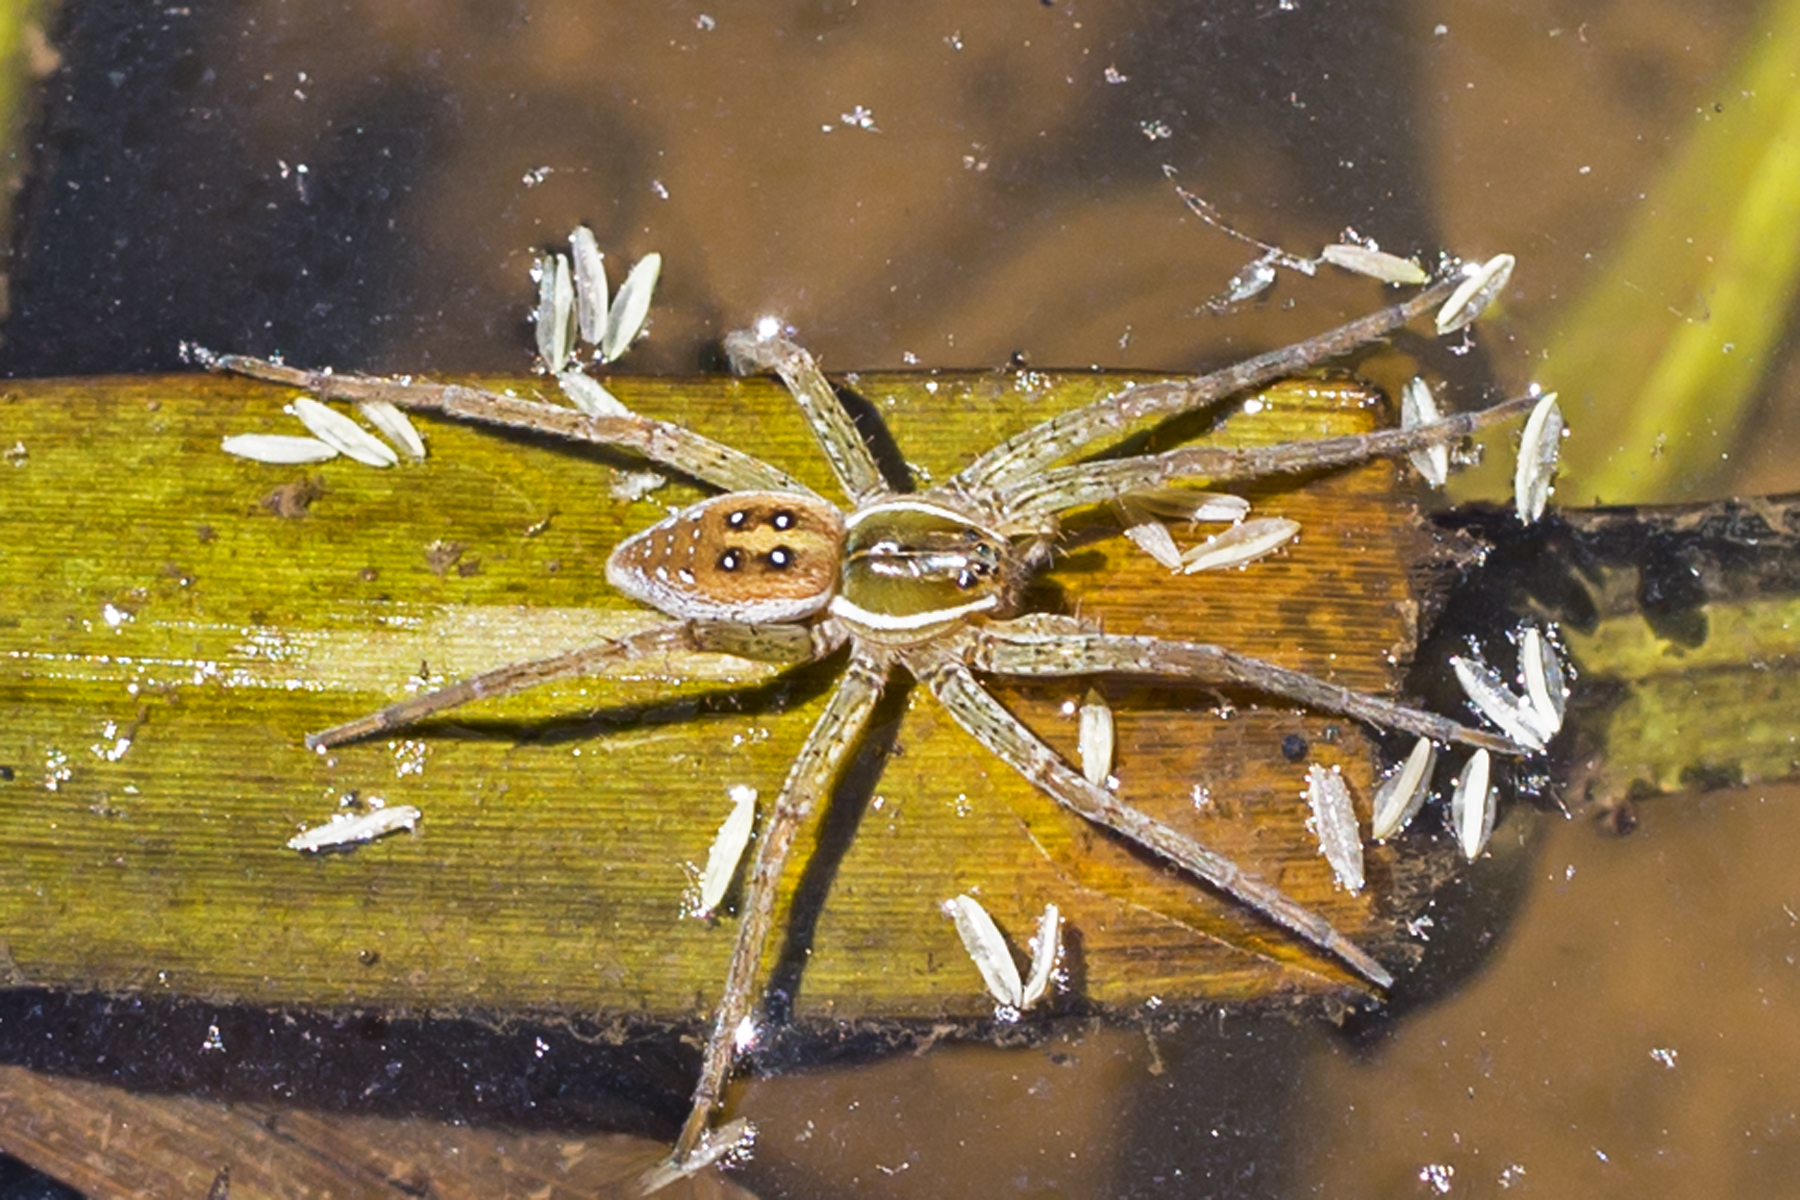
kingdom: Animalia
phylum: Arthropoda
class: Arachnida
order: Araneae
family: Pisauridae
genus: Dolomedes
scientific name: Dolomedes triton
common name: Six-spotted fishing spider
